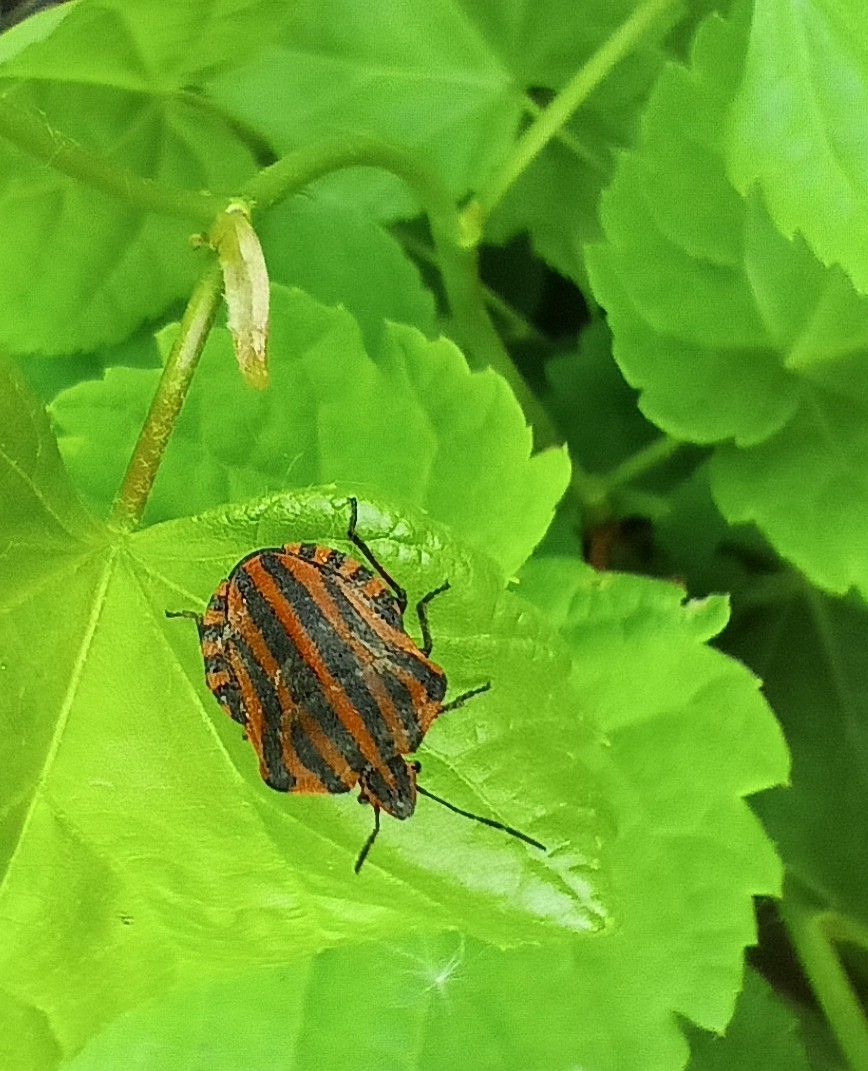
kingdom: Animalia
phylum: Arthropoda
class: Insecta
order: Hemiptera
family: Pentatomidae
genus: Graphosoma
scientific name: Graphosoma italicum
